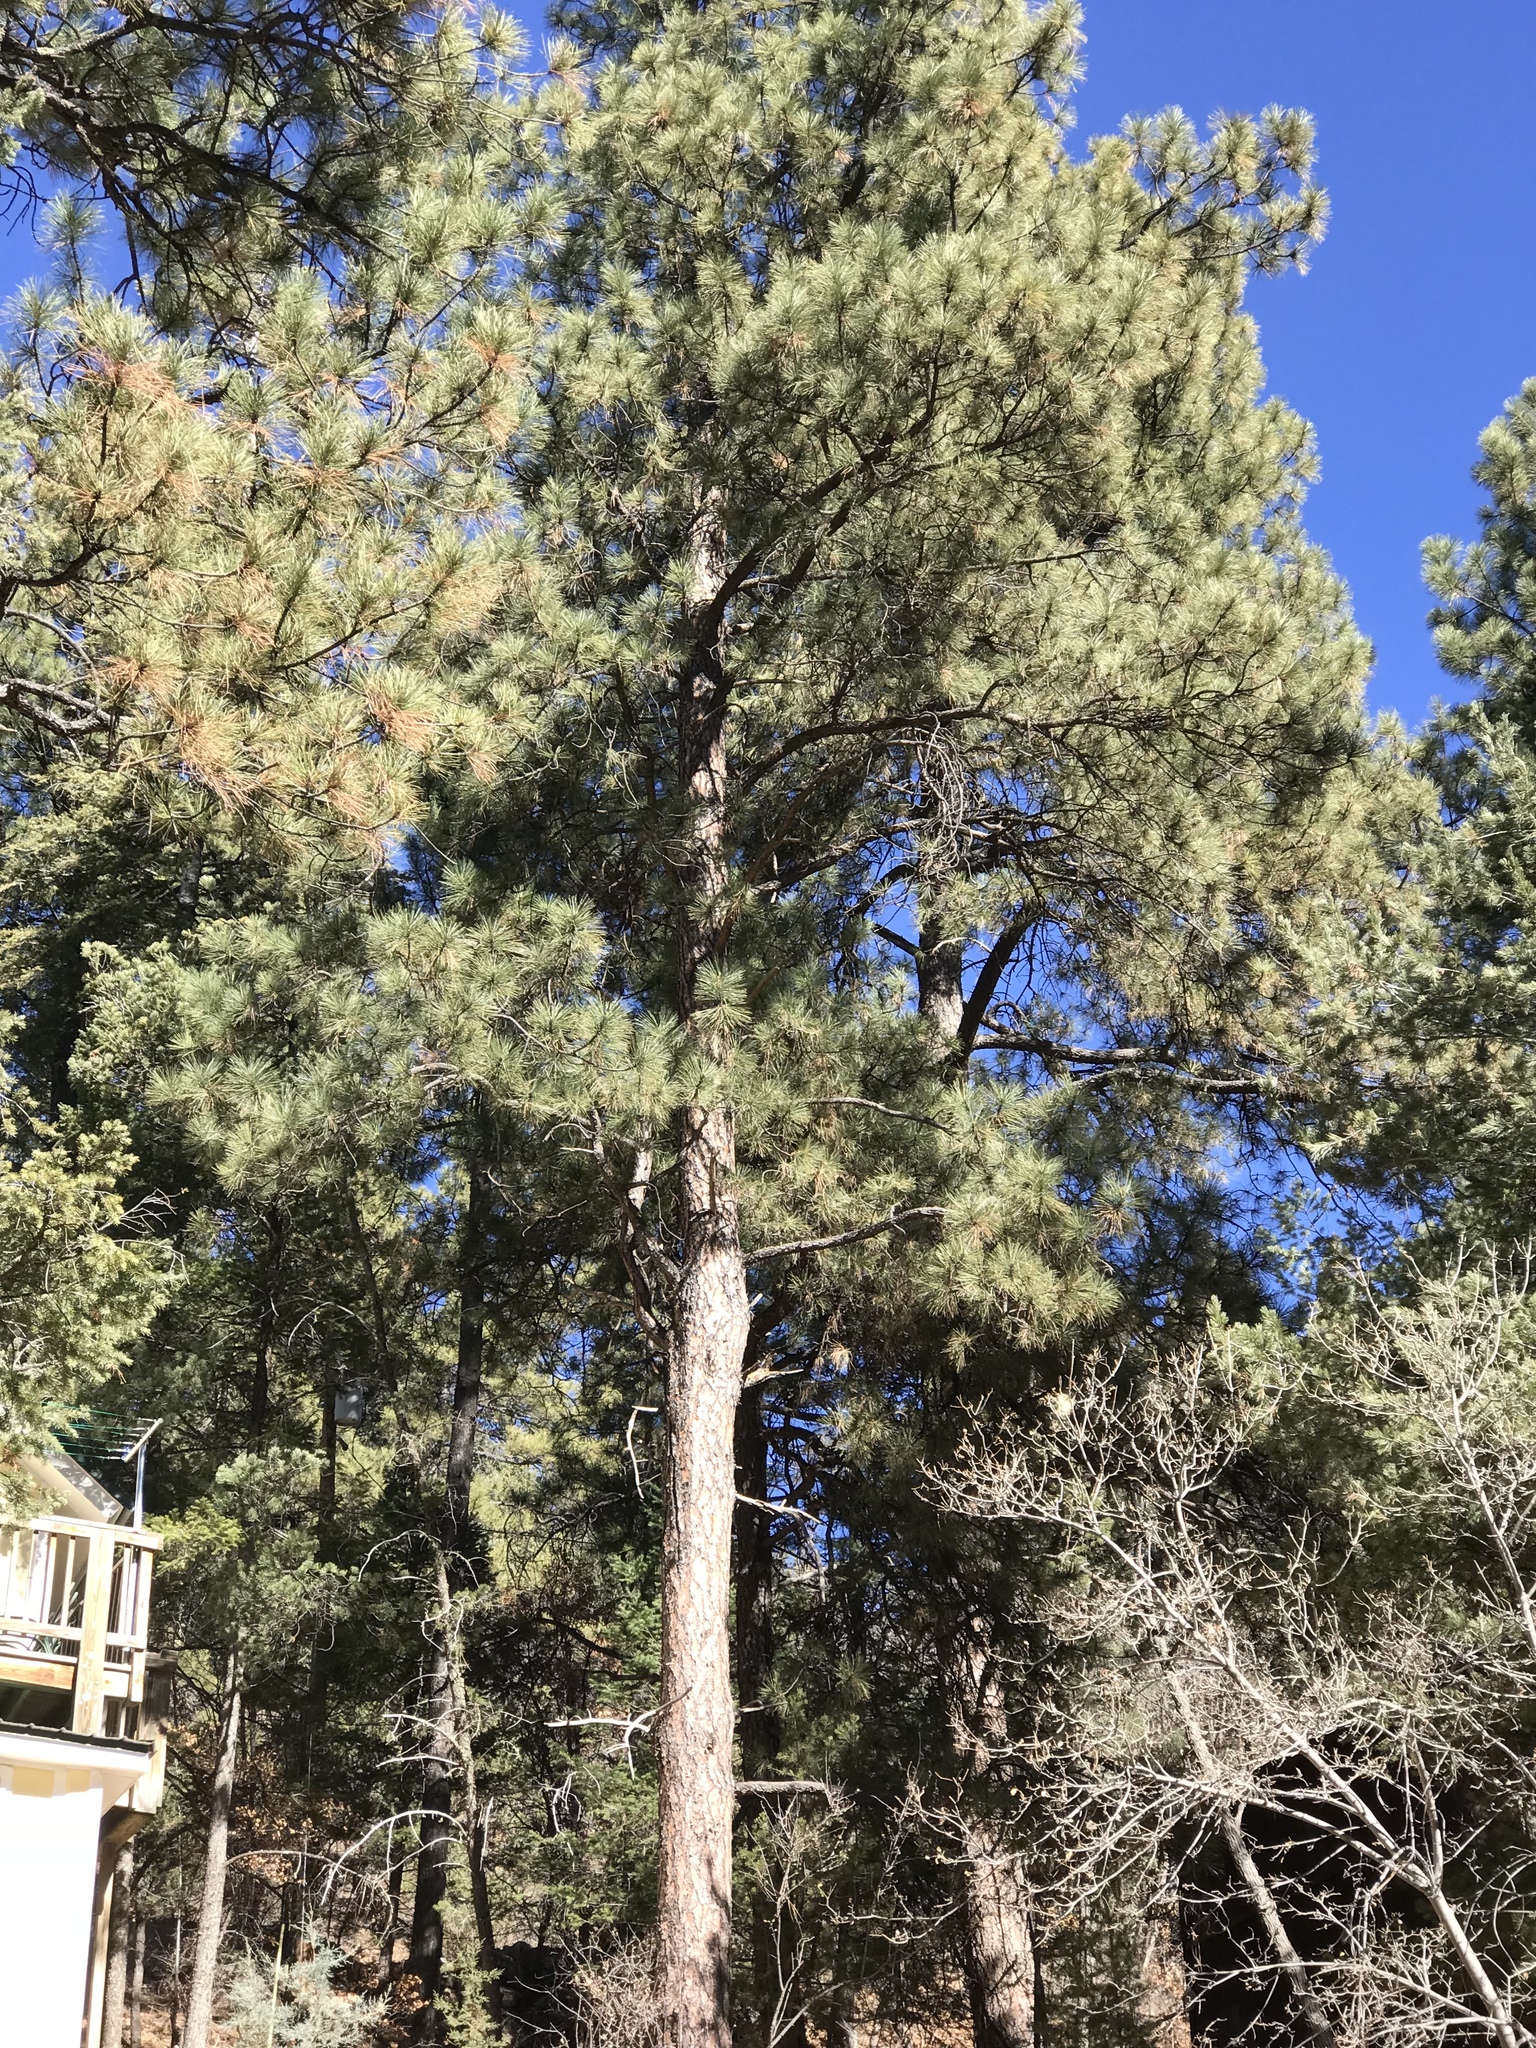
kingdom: Plantae
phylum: Tracheophyta
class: Pinopsida
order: Pinales
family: Pinaceae
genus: Pinus
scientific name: Pinus ponderosa
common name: Western yellow-pine
